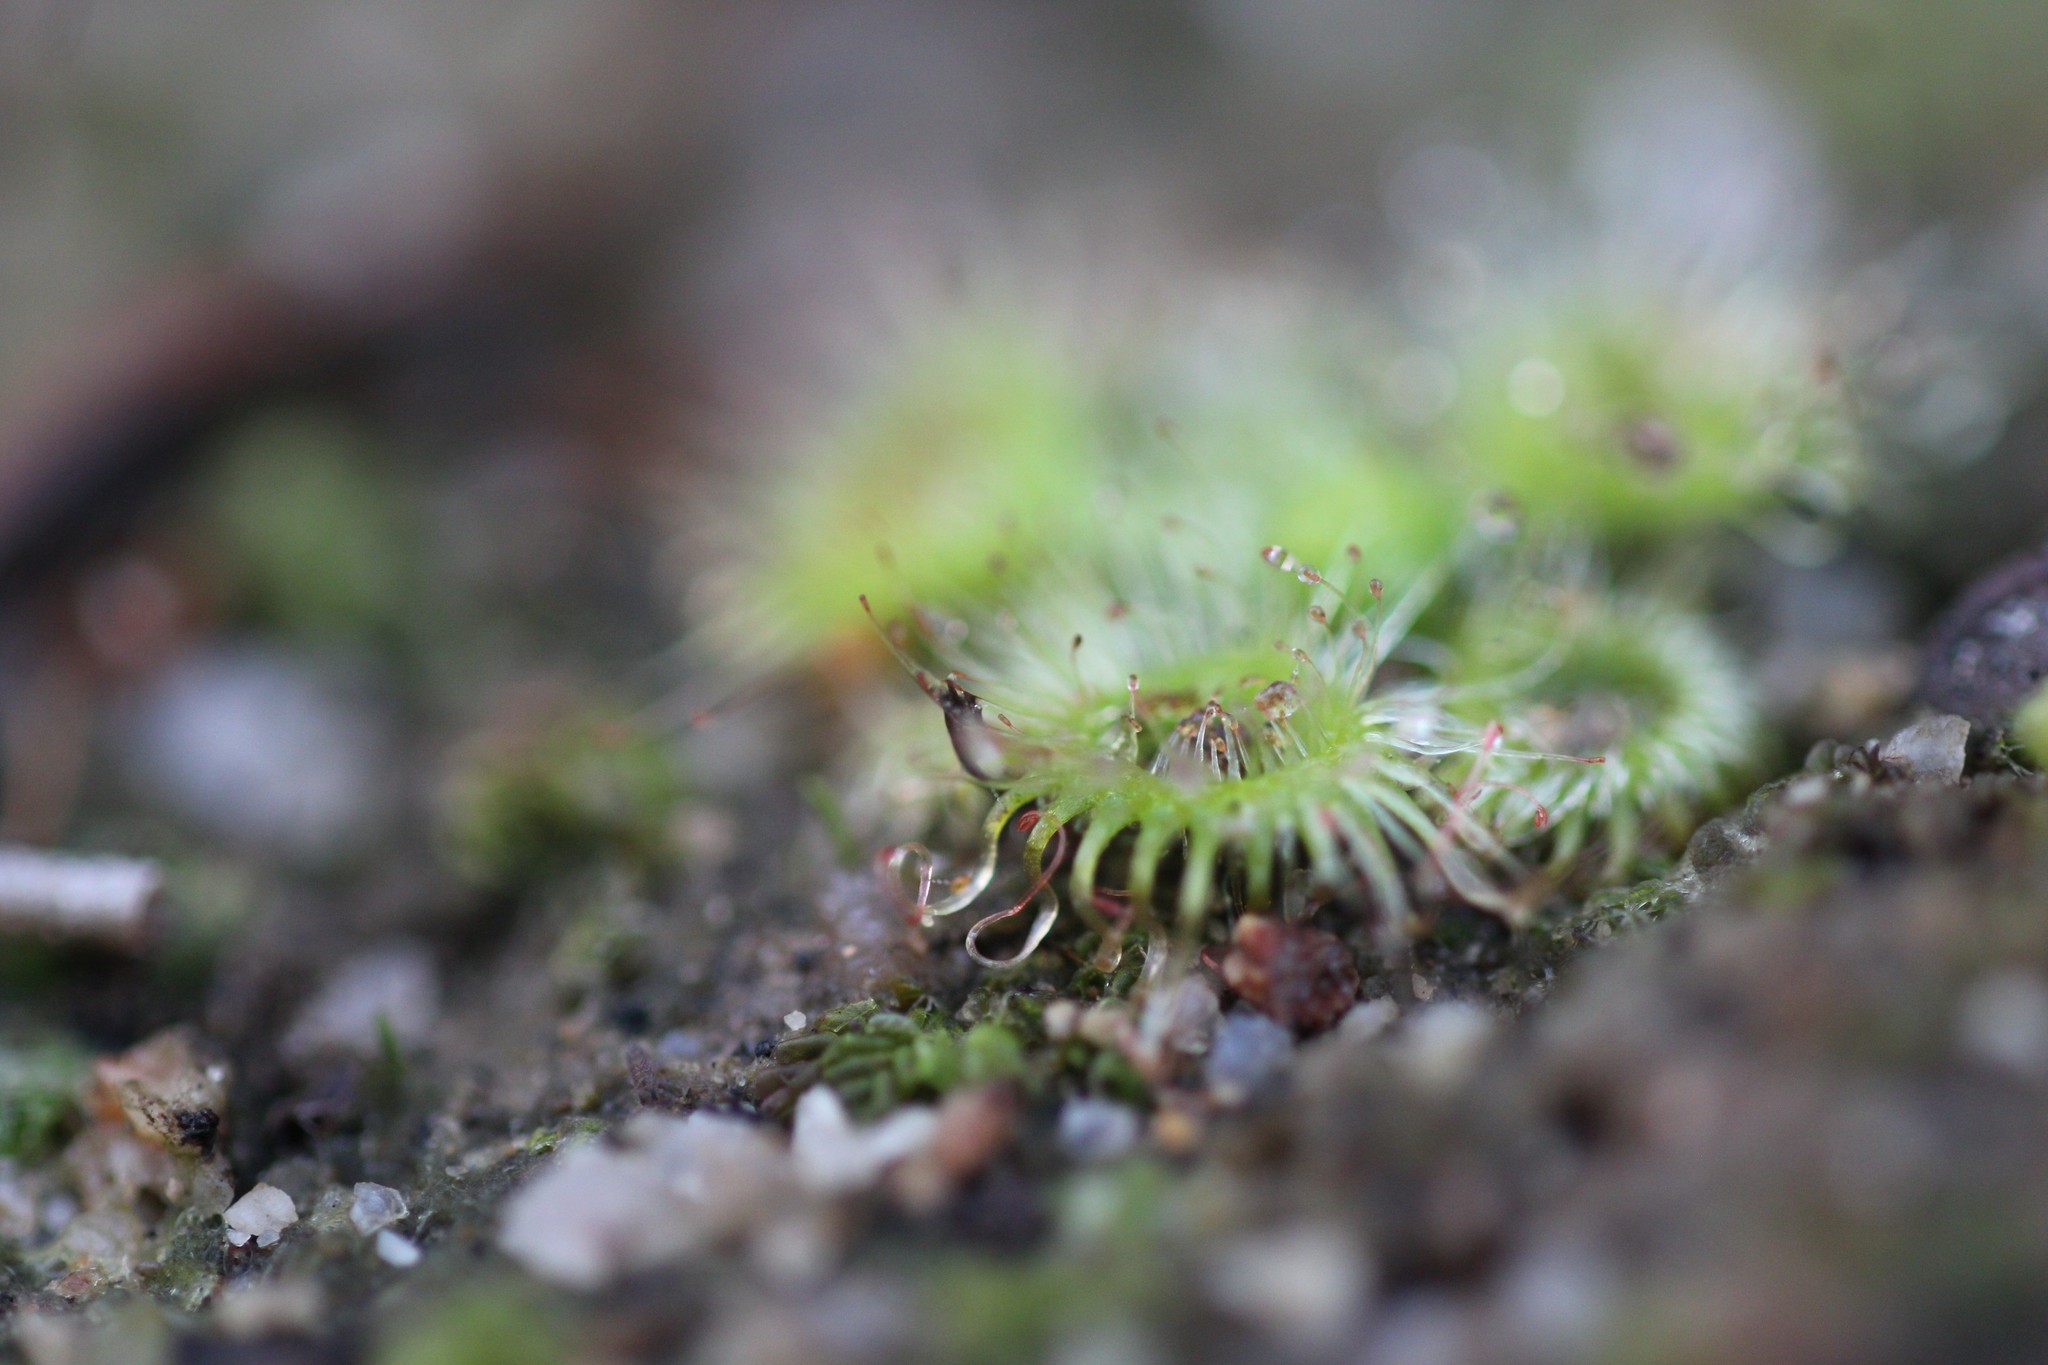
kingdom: Plantae
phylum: Tracheophyta
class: Magnoliopsida
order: Caryophyllales
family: Droseraceae
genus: Drosera
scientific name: Drosera glanduligera
